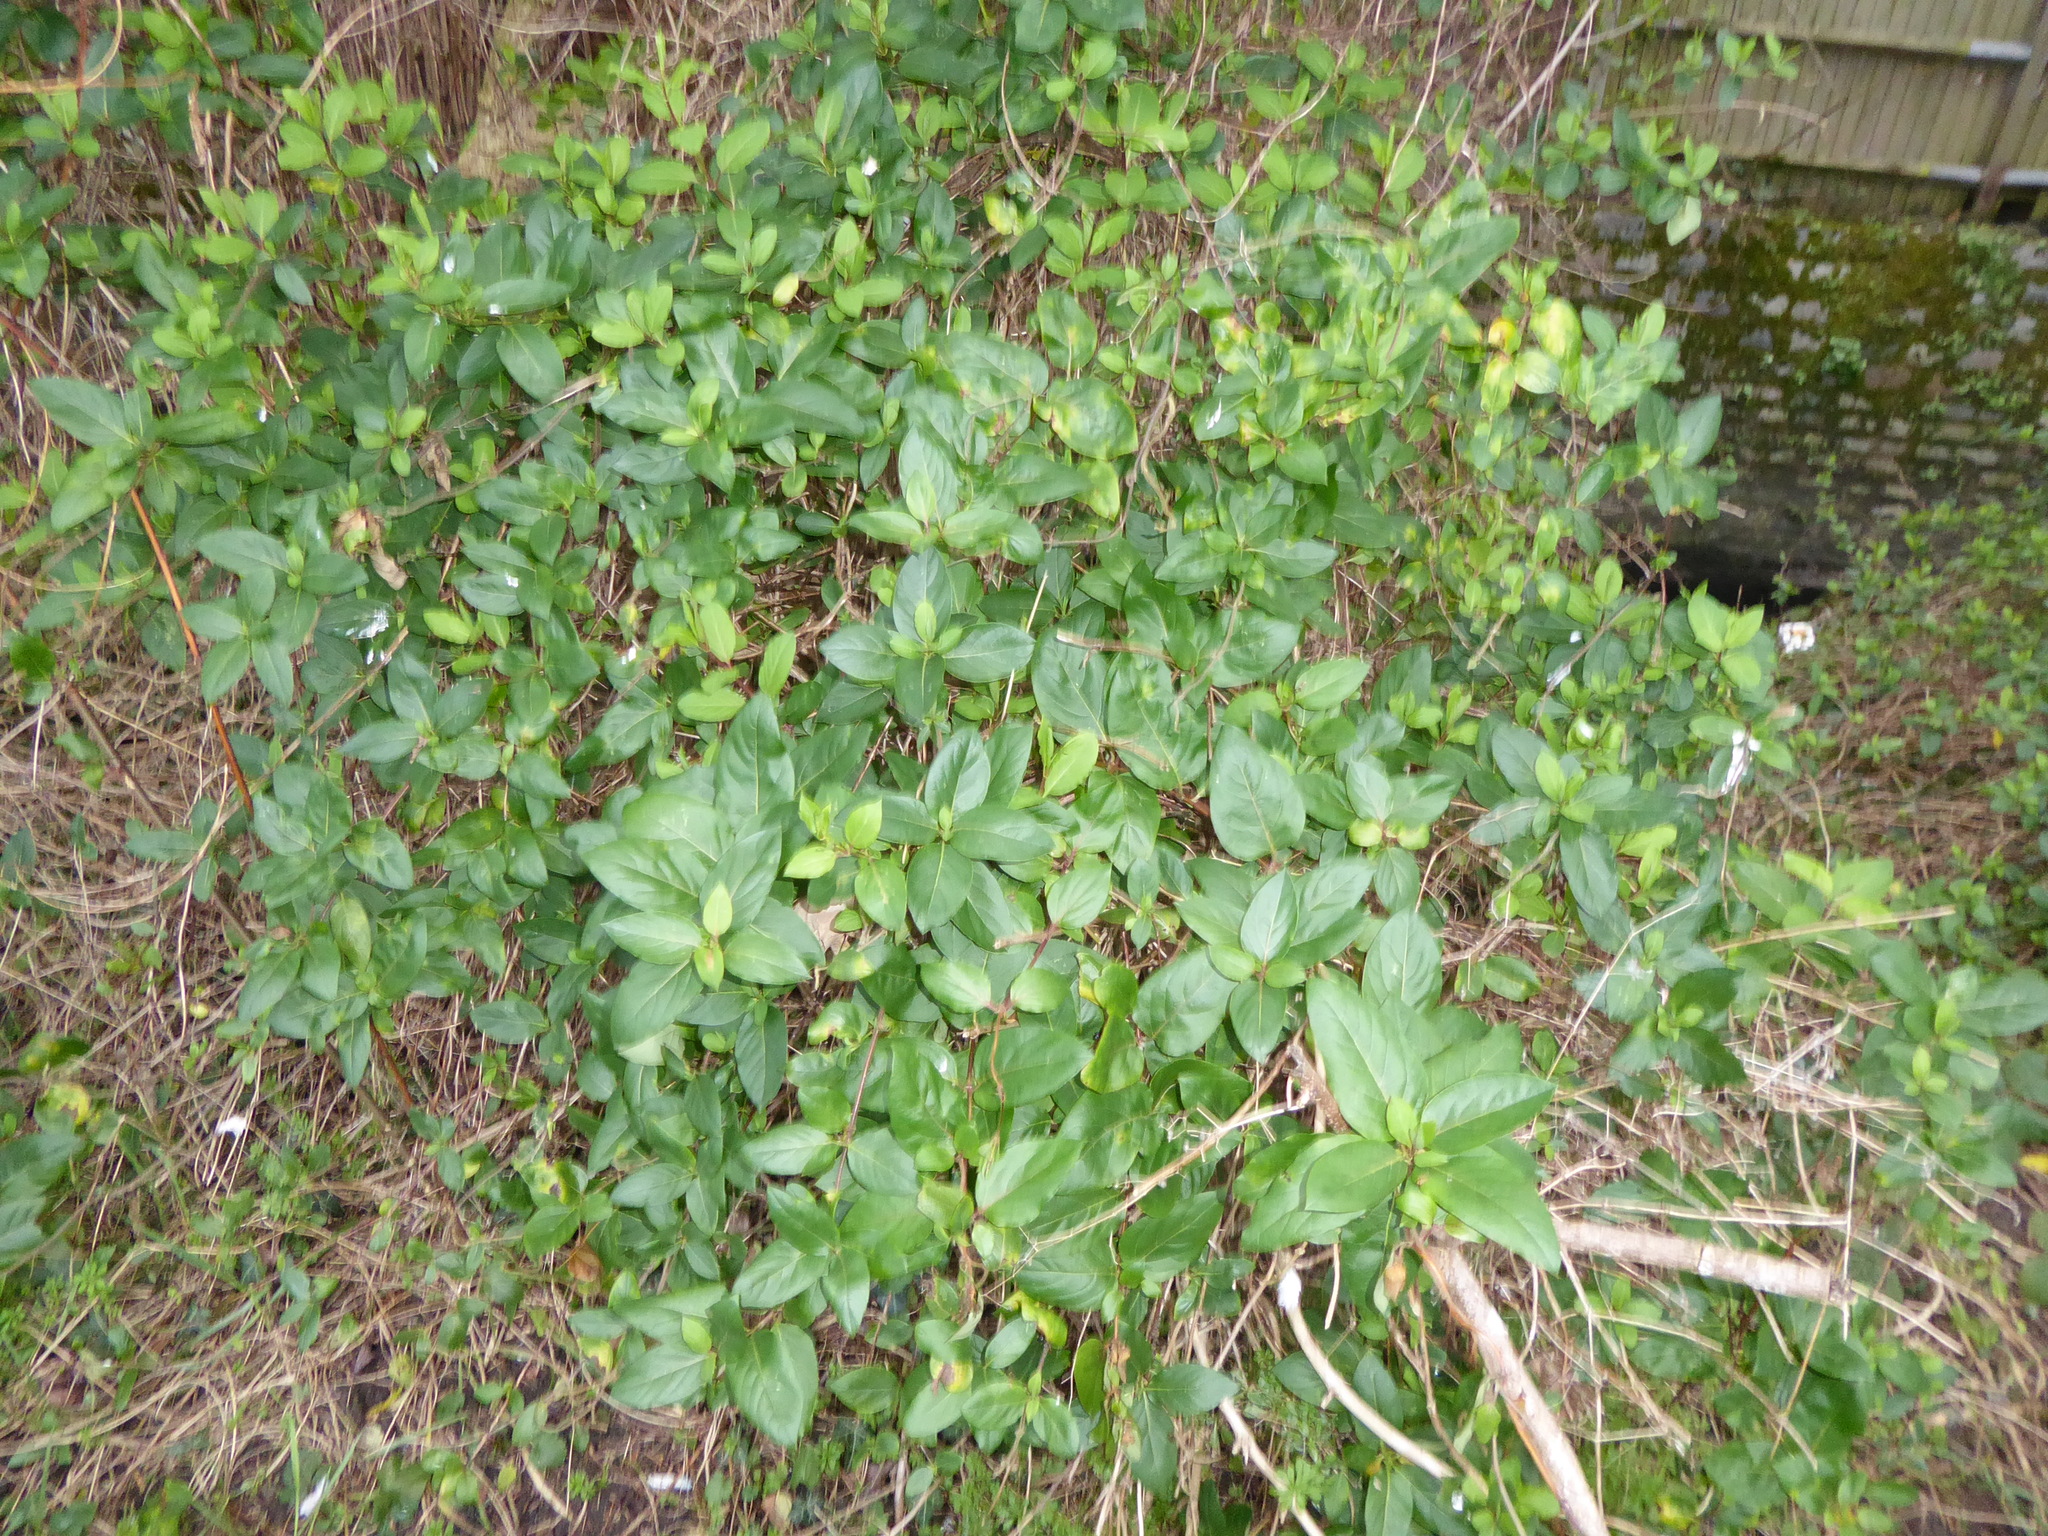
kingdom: Plantae
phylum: Tracheophyta
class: Magnoliopsida
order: Dipsacales
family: Caprifoliaceae
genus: Lonicera
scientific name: Lonicera japonica
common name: Japanese honeysuckle
